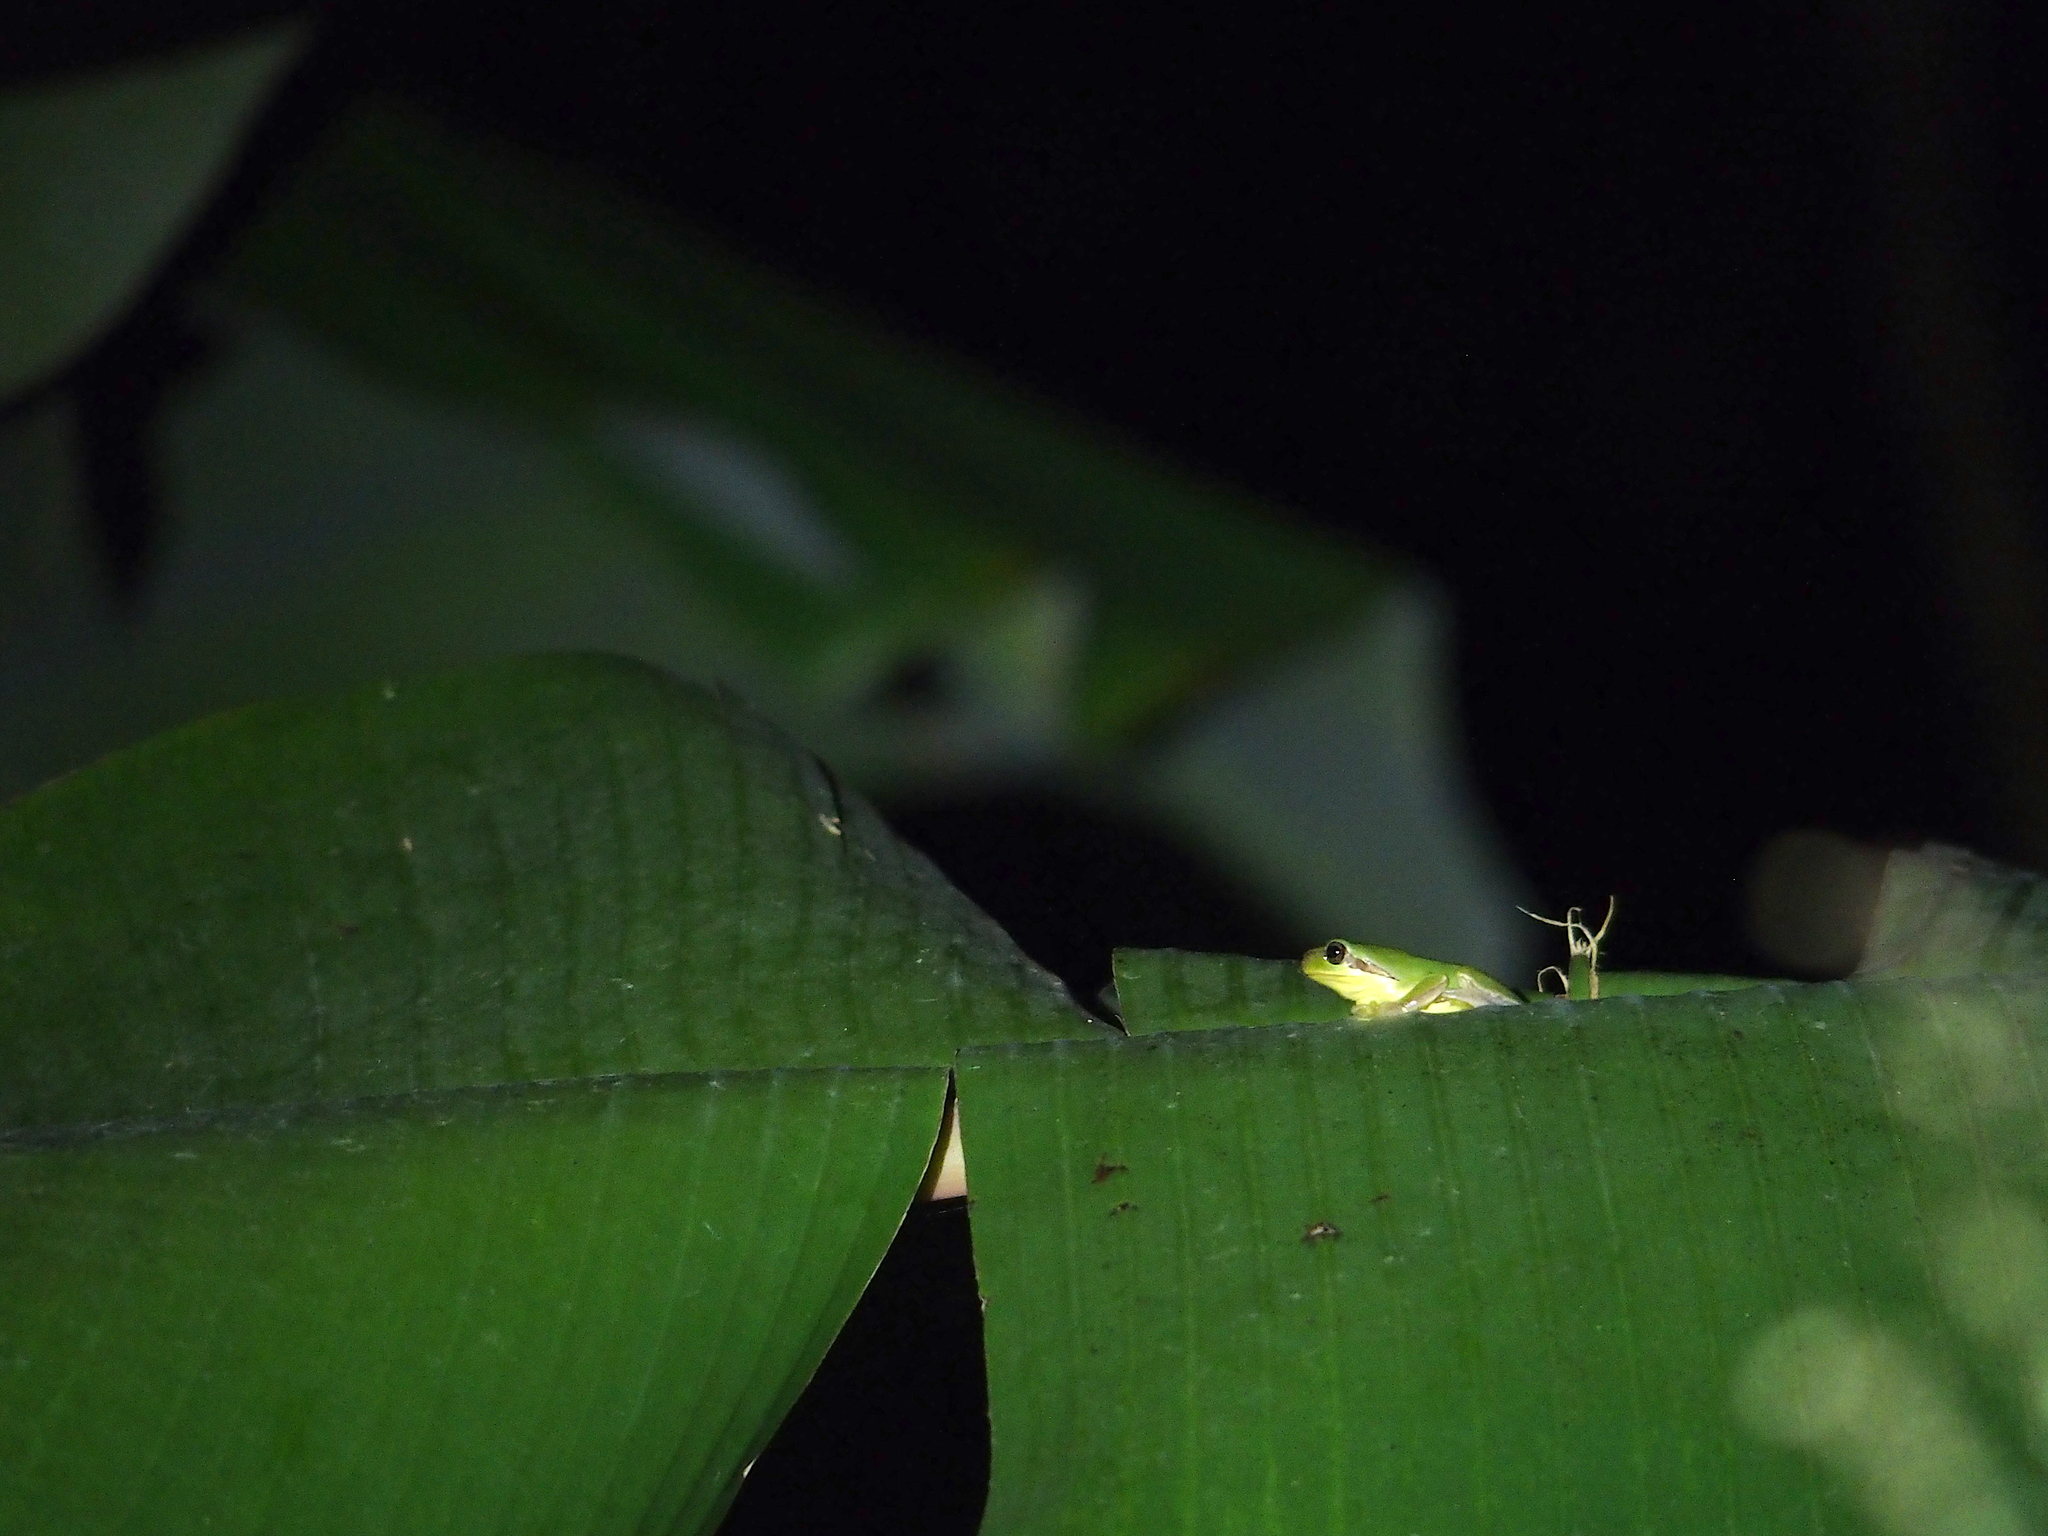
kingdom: Animalia
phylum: Chordata
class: Amphibia
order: Anura
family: Hylidae
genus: Hyla
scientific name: Hyla chinensis
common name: Common chinese treefrog
